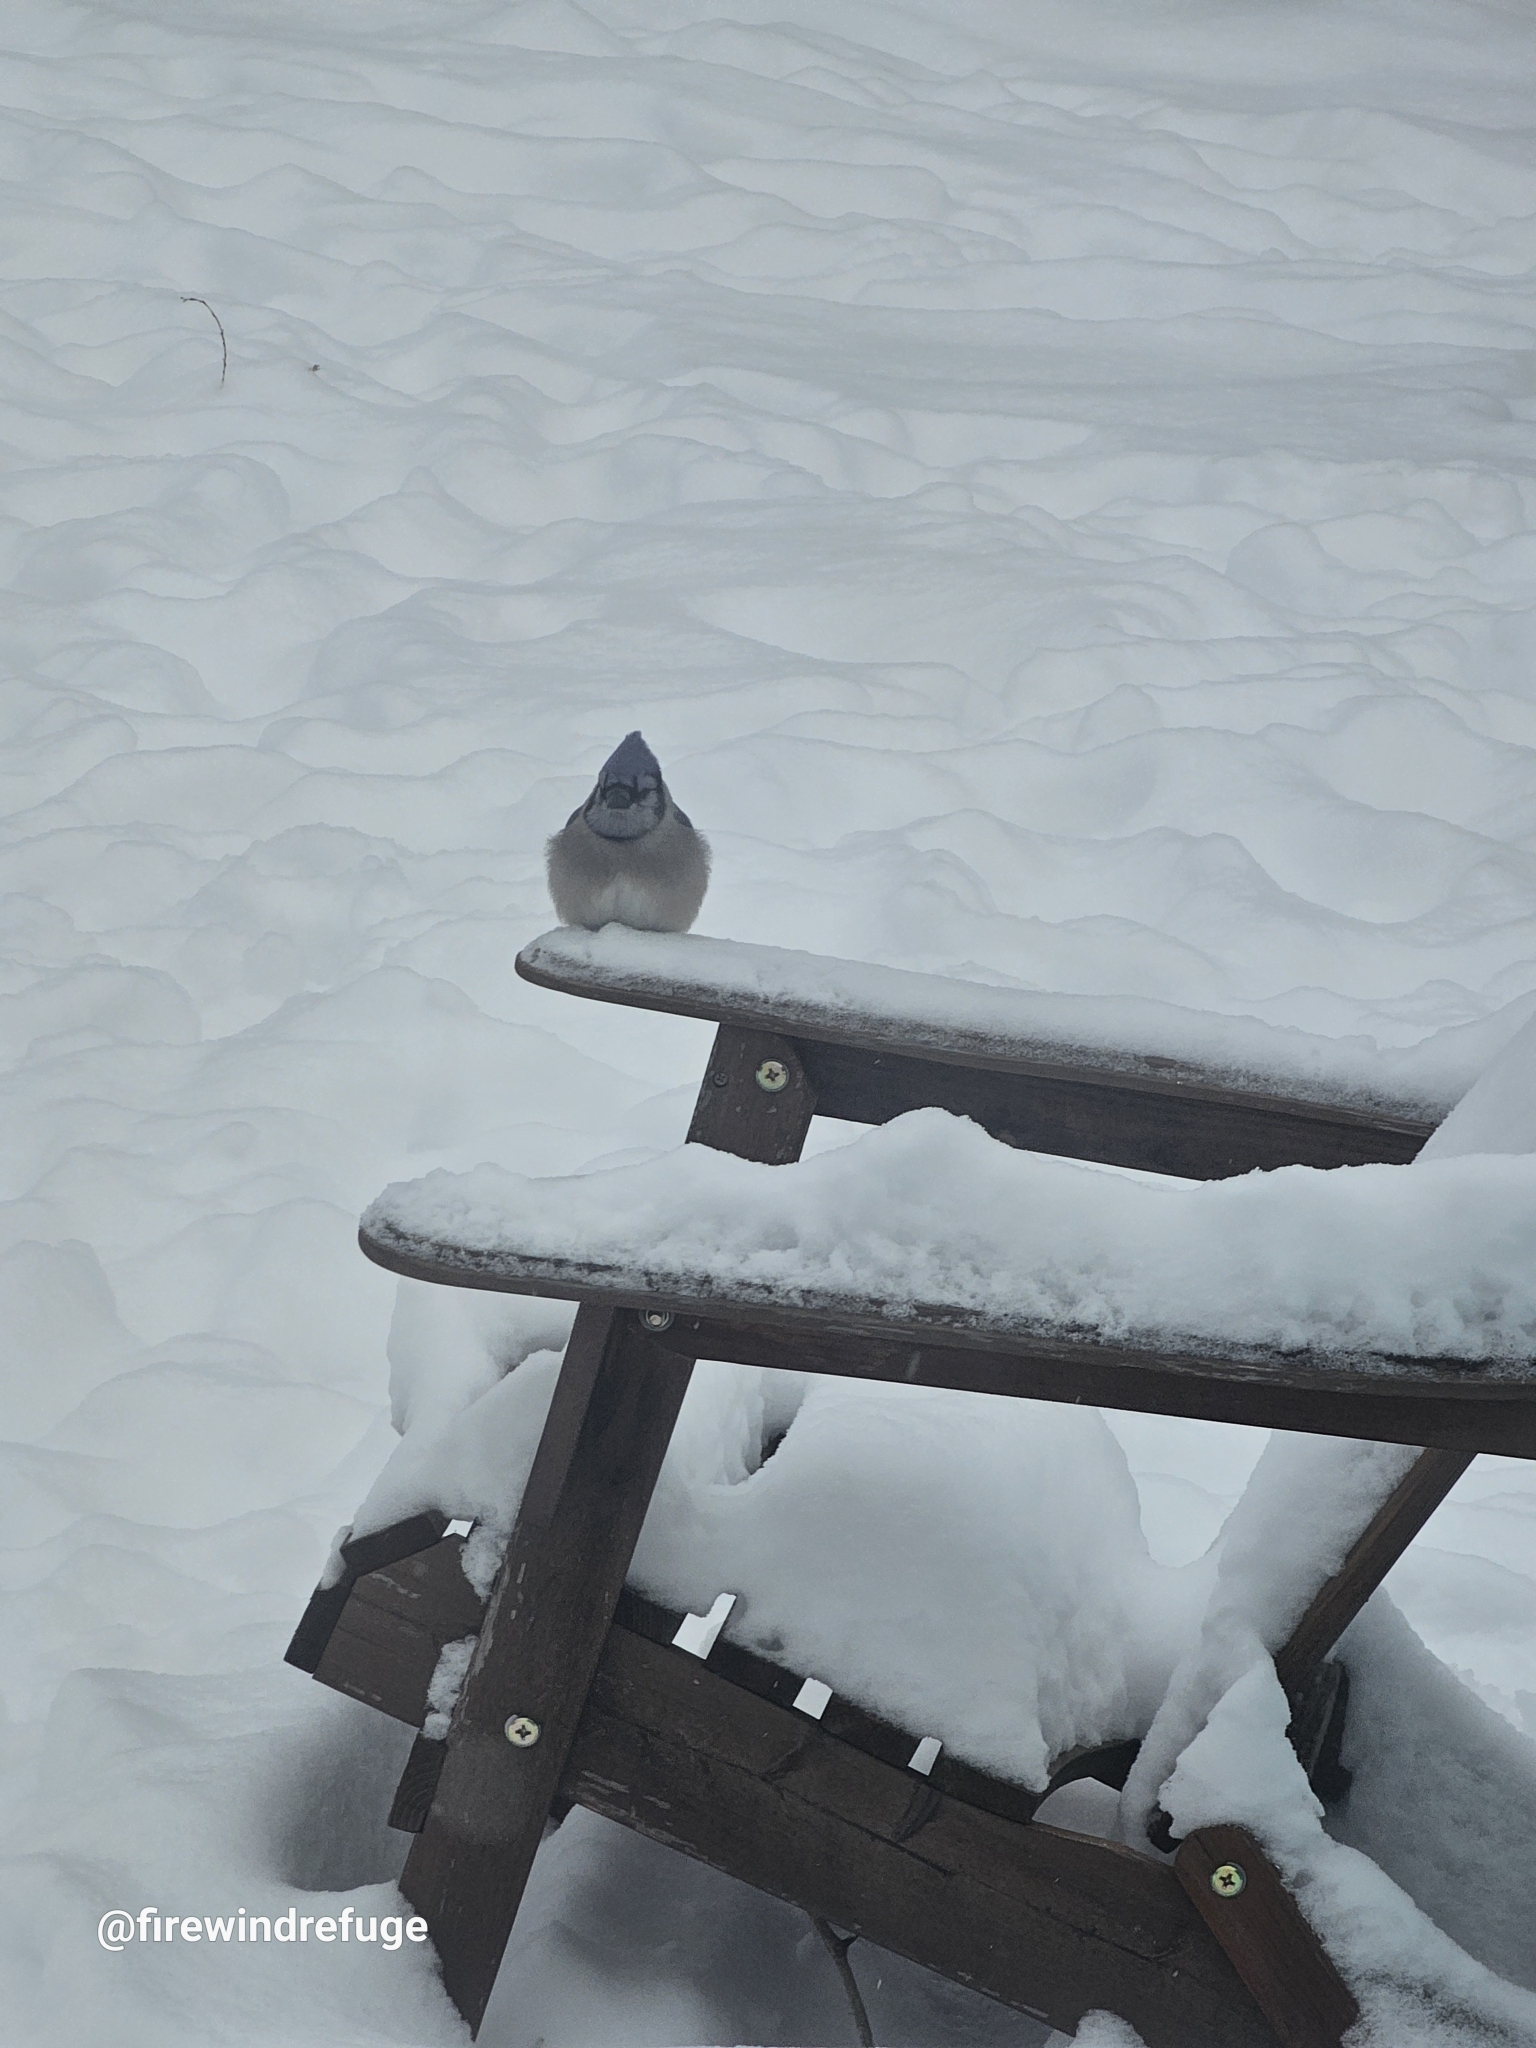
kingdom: Animalia
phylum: Chordata
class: Aves
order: Passeriformes
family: Corvidae
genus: Cyanocitta
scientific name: Cyanocitta cristata
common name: Blue jay
